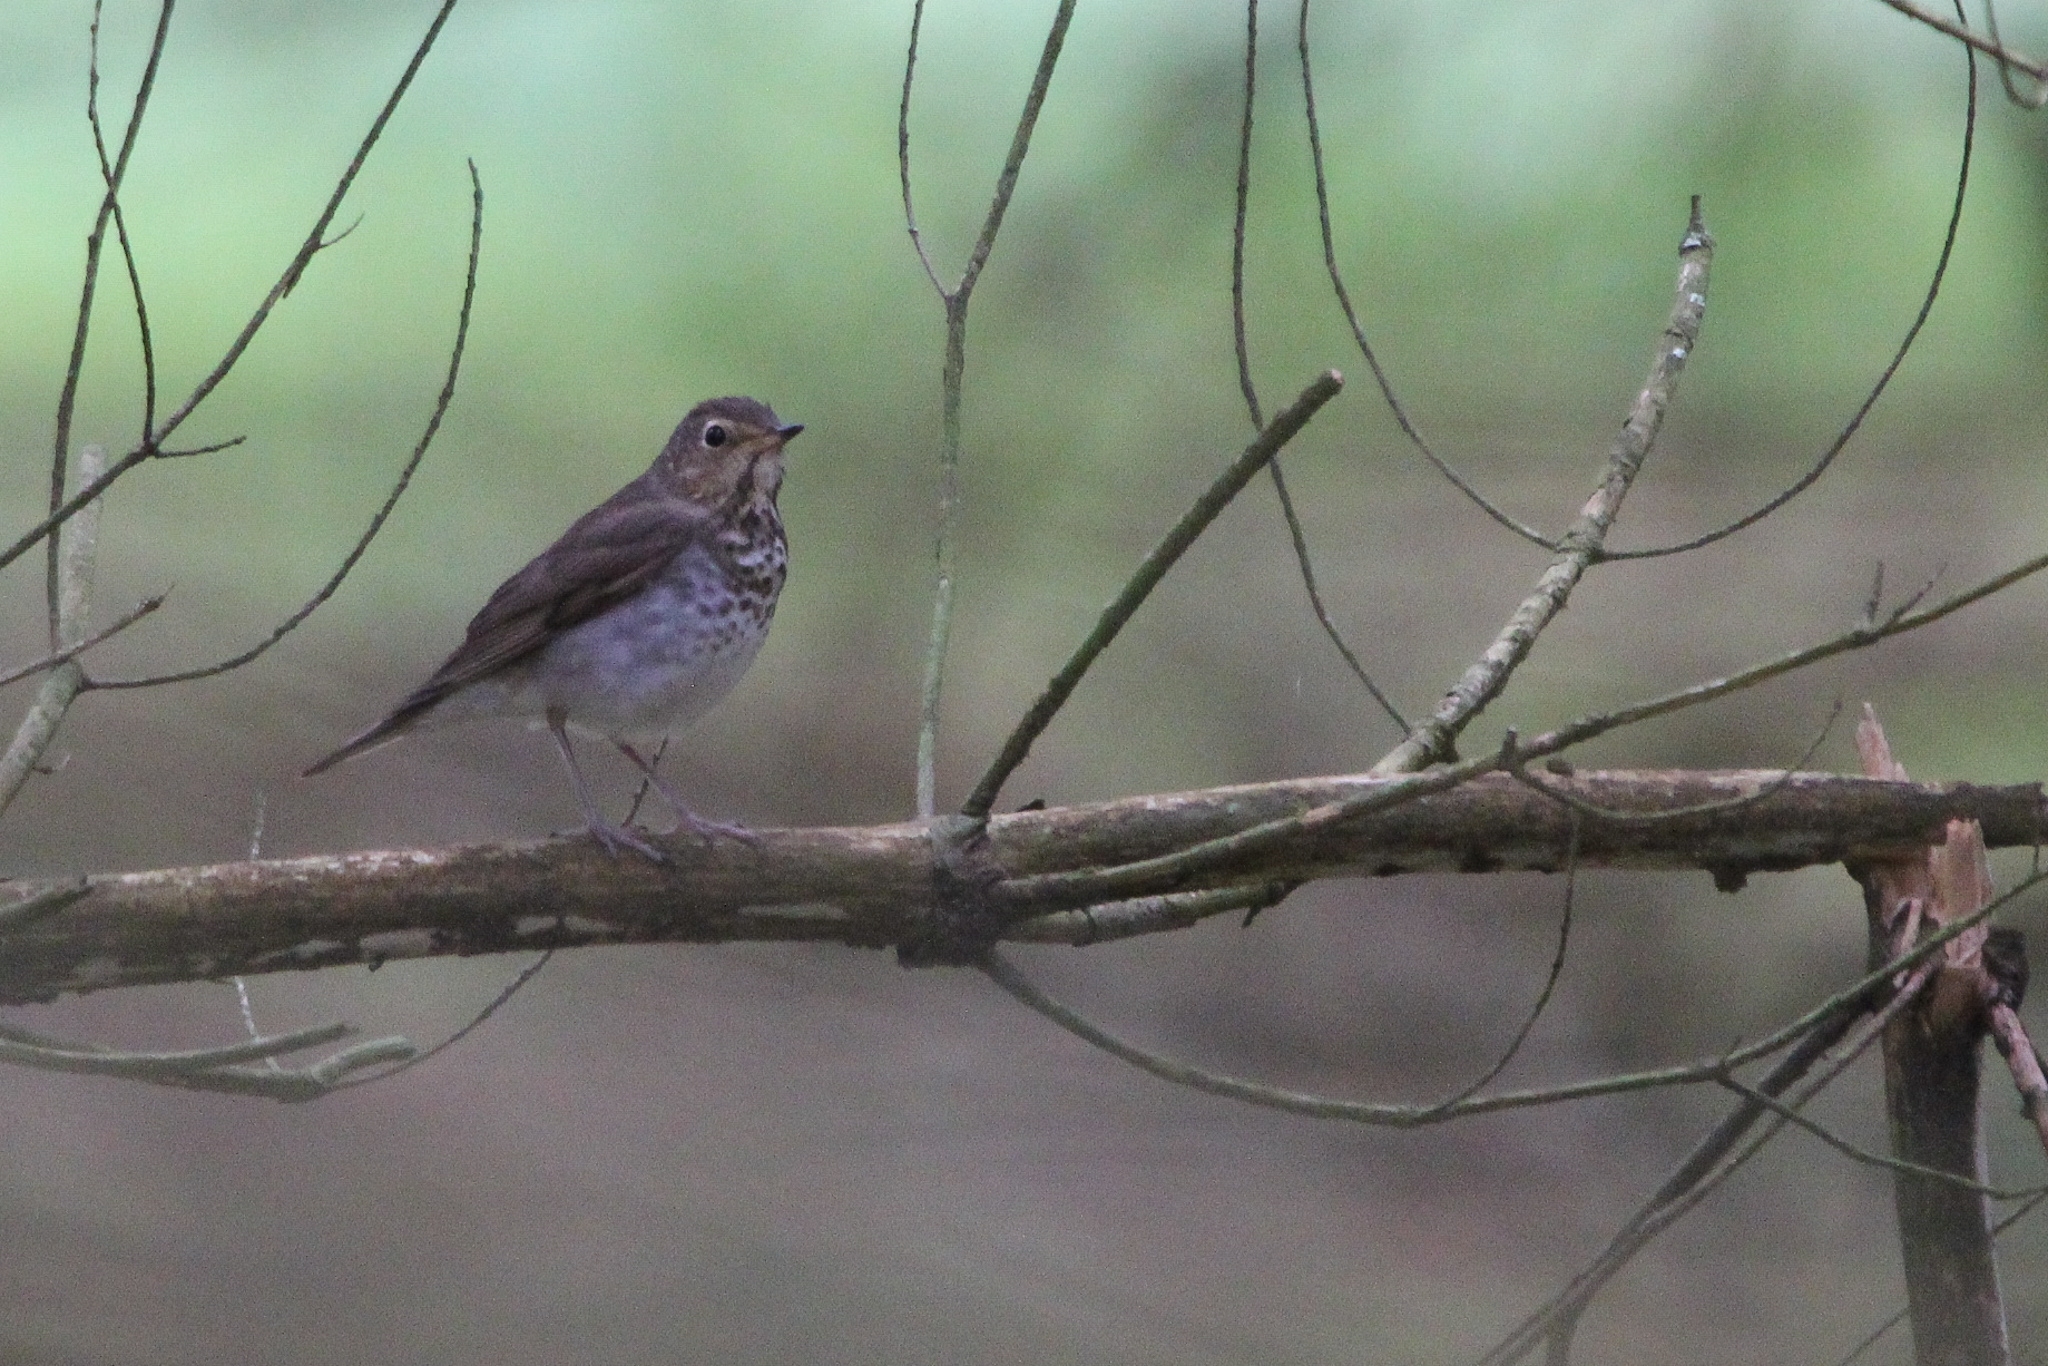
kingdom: Animalia
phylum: Chordata
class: Aves
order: Passeriformes
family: Turdidae
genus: Catharus
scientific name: Catharus ustulatus
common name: Swainson's thrush
